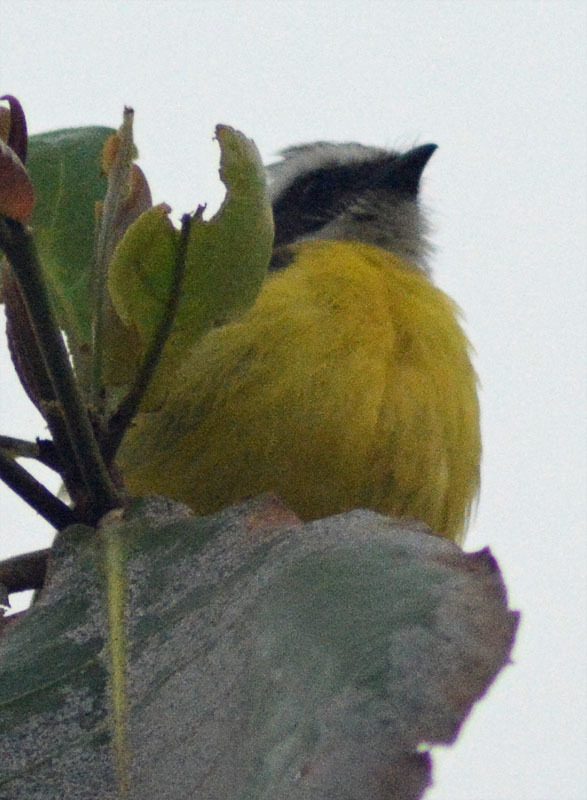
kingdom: Animalia
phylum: Chordata
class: Aves
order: Passeriformes
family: Tyrannidae
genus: Myiozetetes
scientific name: Myiozetetes similis
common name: Social flycatcher
